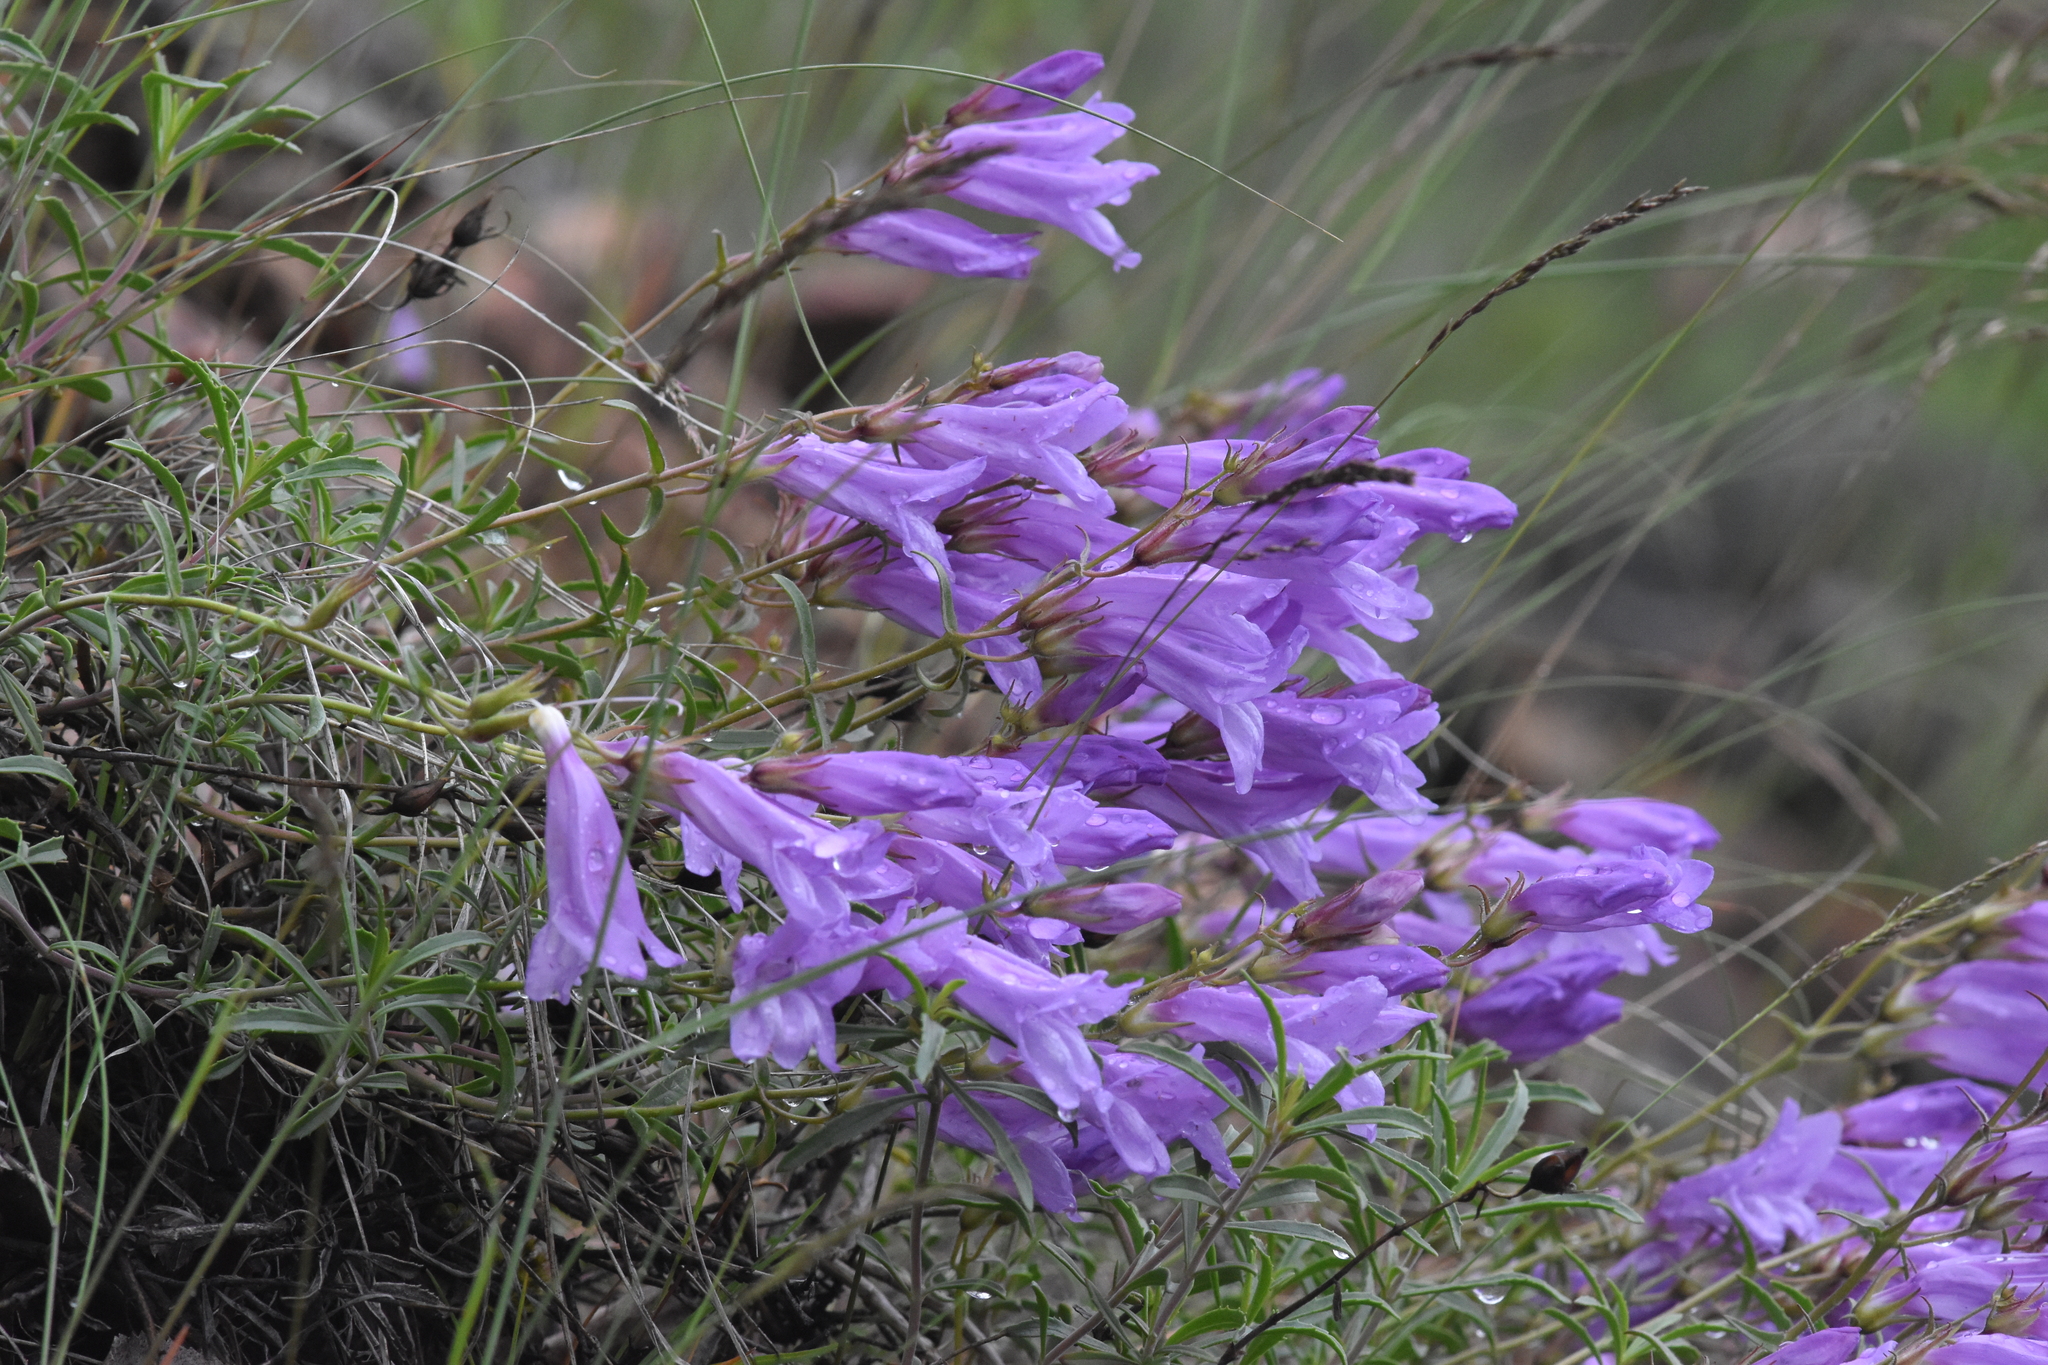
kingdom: Plantae
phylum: Tracheophyta
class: Magnoliopsida
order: Lamiales
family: Plantaginaceae
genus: Penstemon
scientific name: Penstemon fruticosus
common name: Bush penstemon
